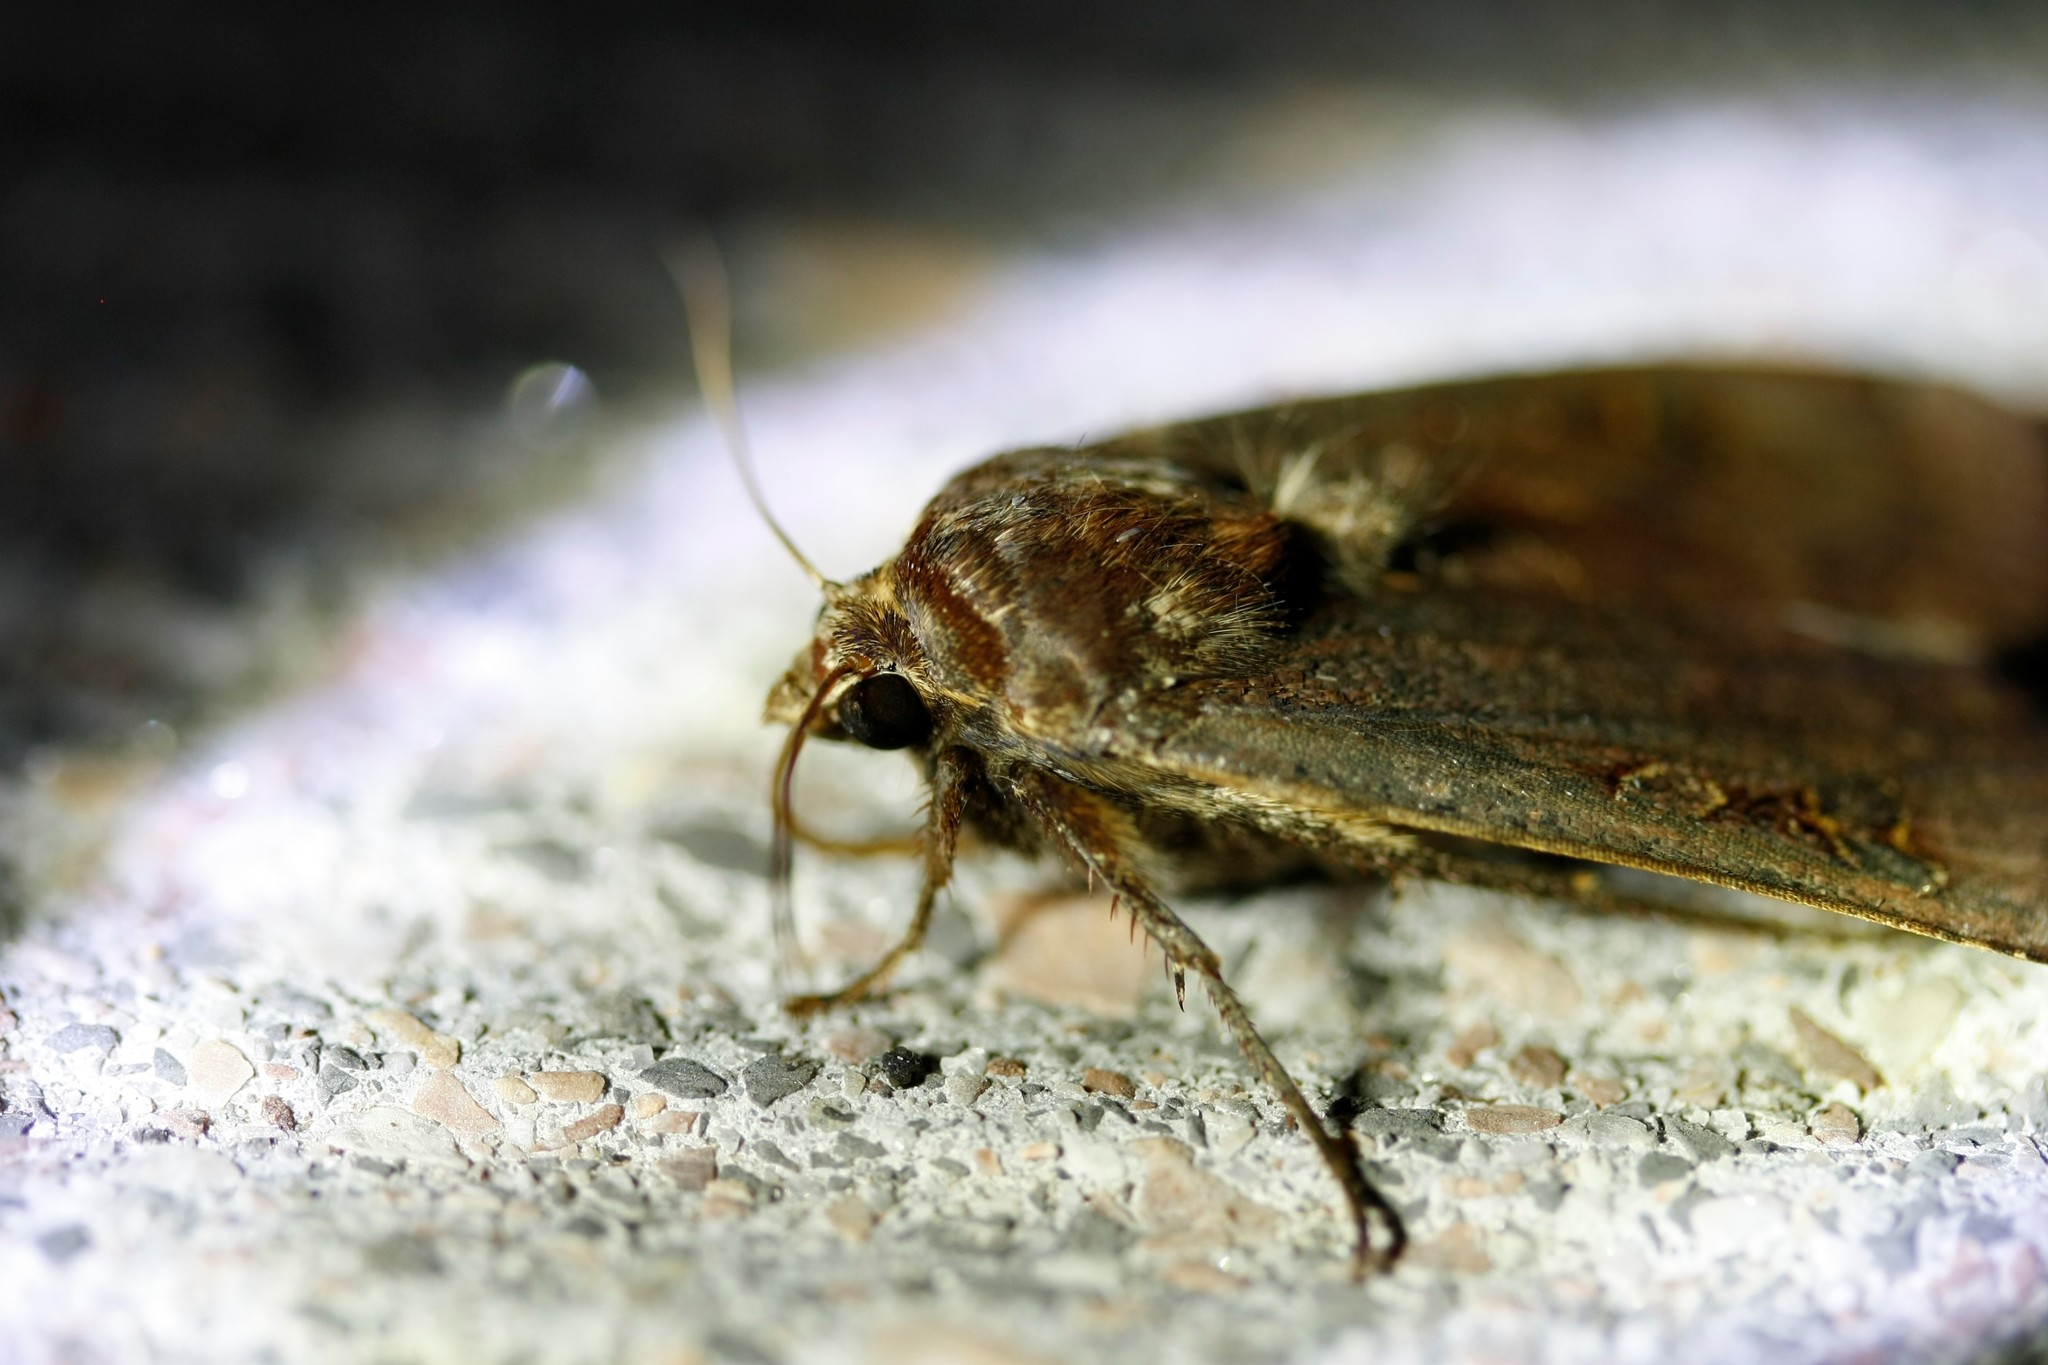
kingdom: Animalia
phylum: Arthropoda
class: Insecta
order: Lepidoptera
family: Noctuidae
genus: Noctua
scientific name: Noctua pronuba
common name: Large yellow underwing
